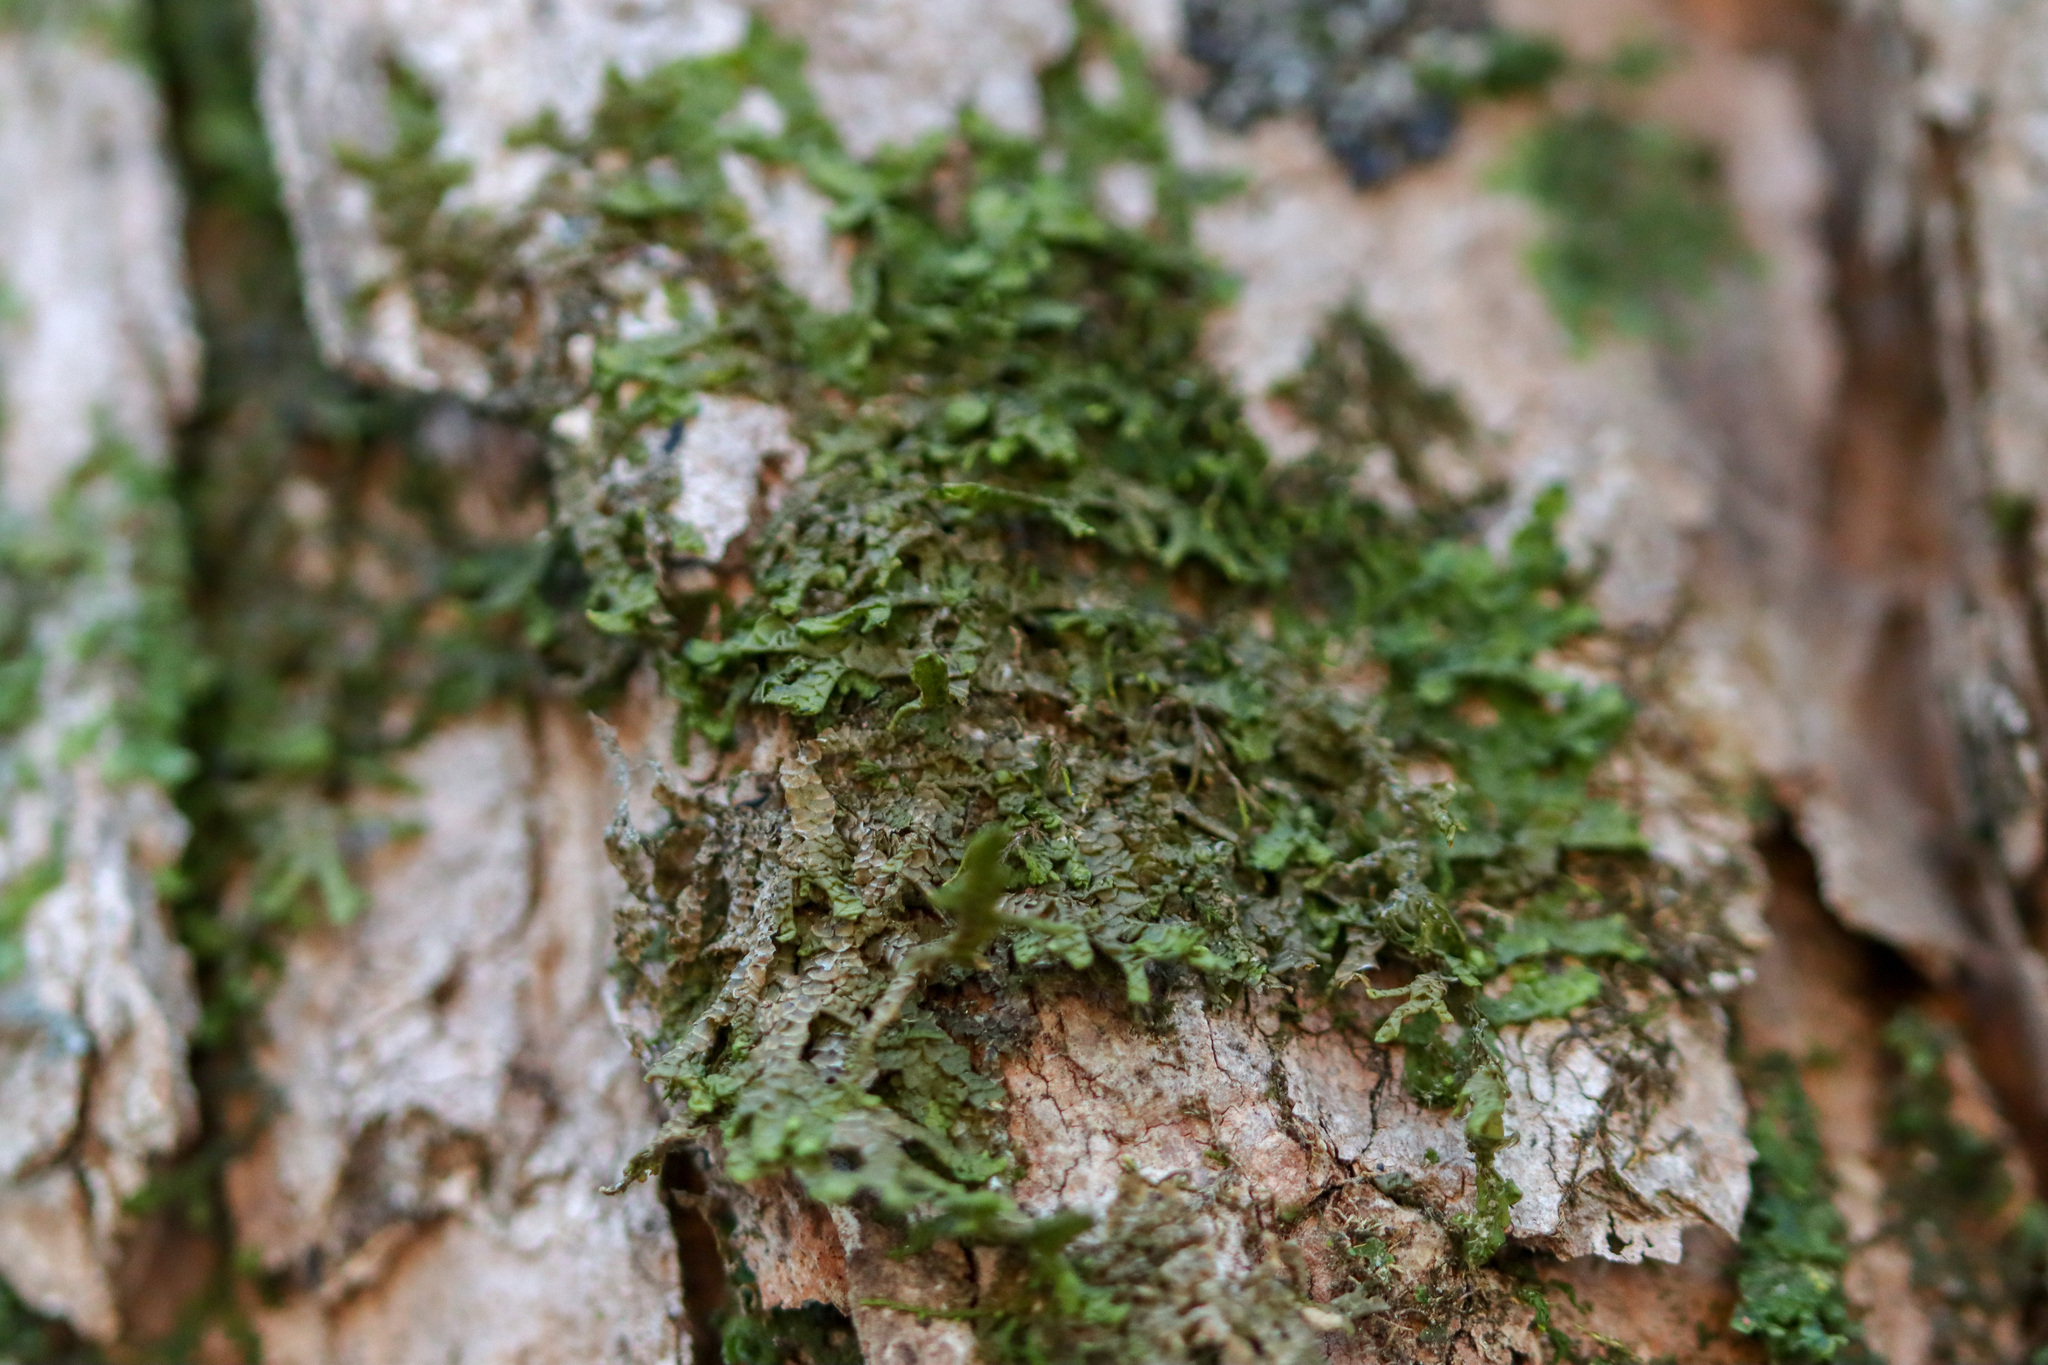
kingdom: Plantae
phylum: Marchantiophyta
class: Jungermanniopsida
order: Porellales
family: Porellaceae
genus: Porella
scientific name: Porella platyphylla
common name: Wall scalewort
